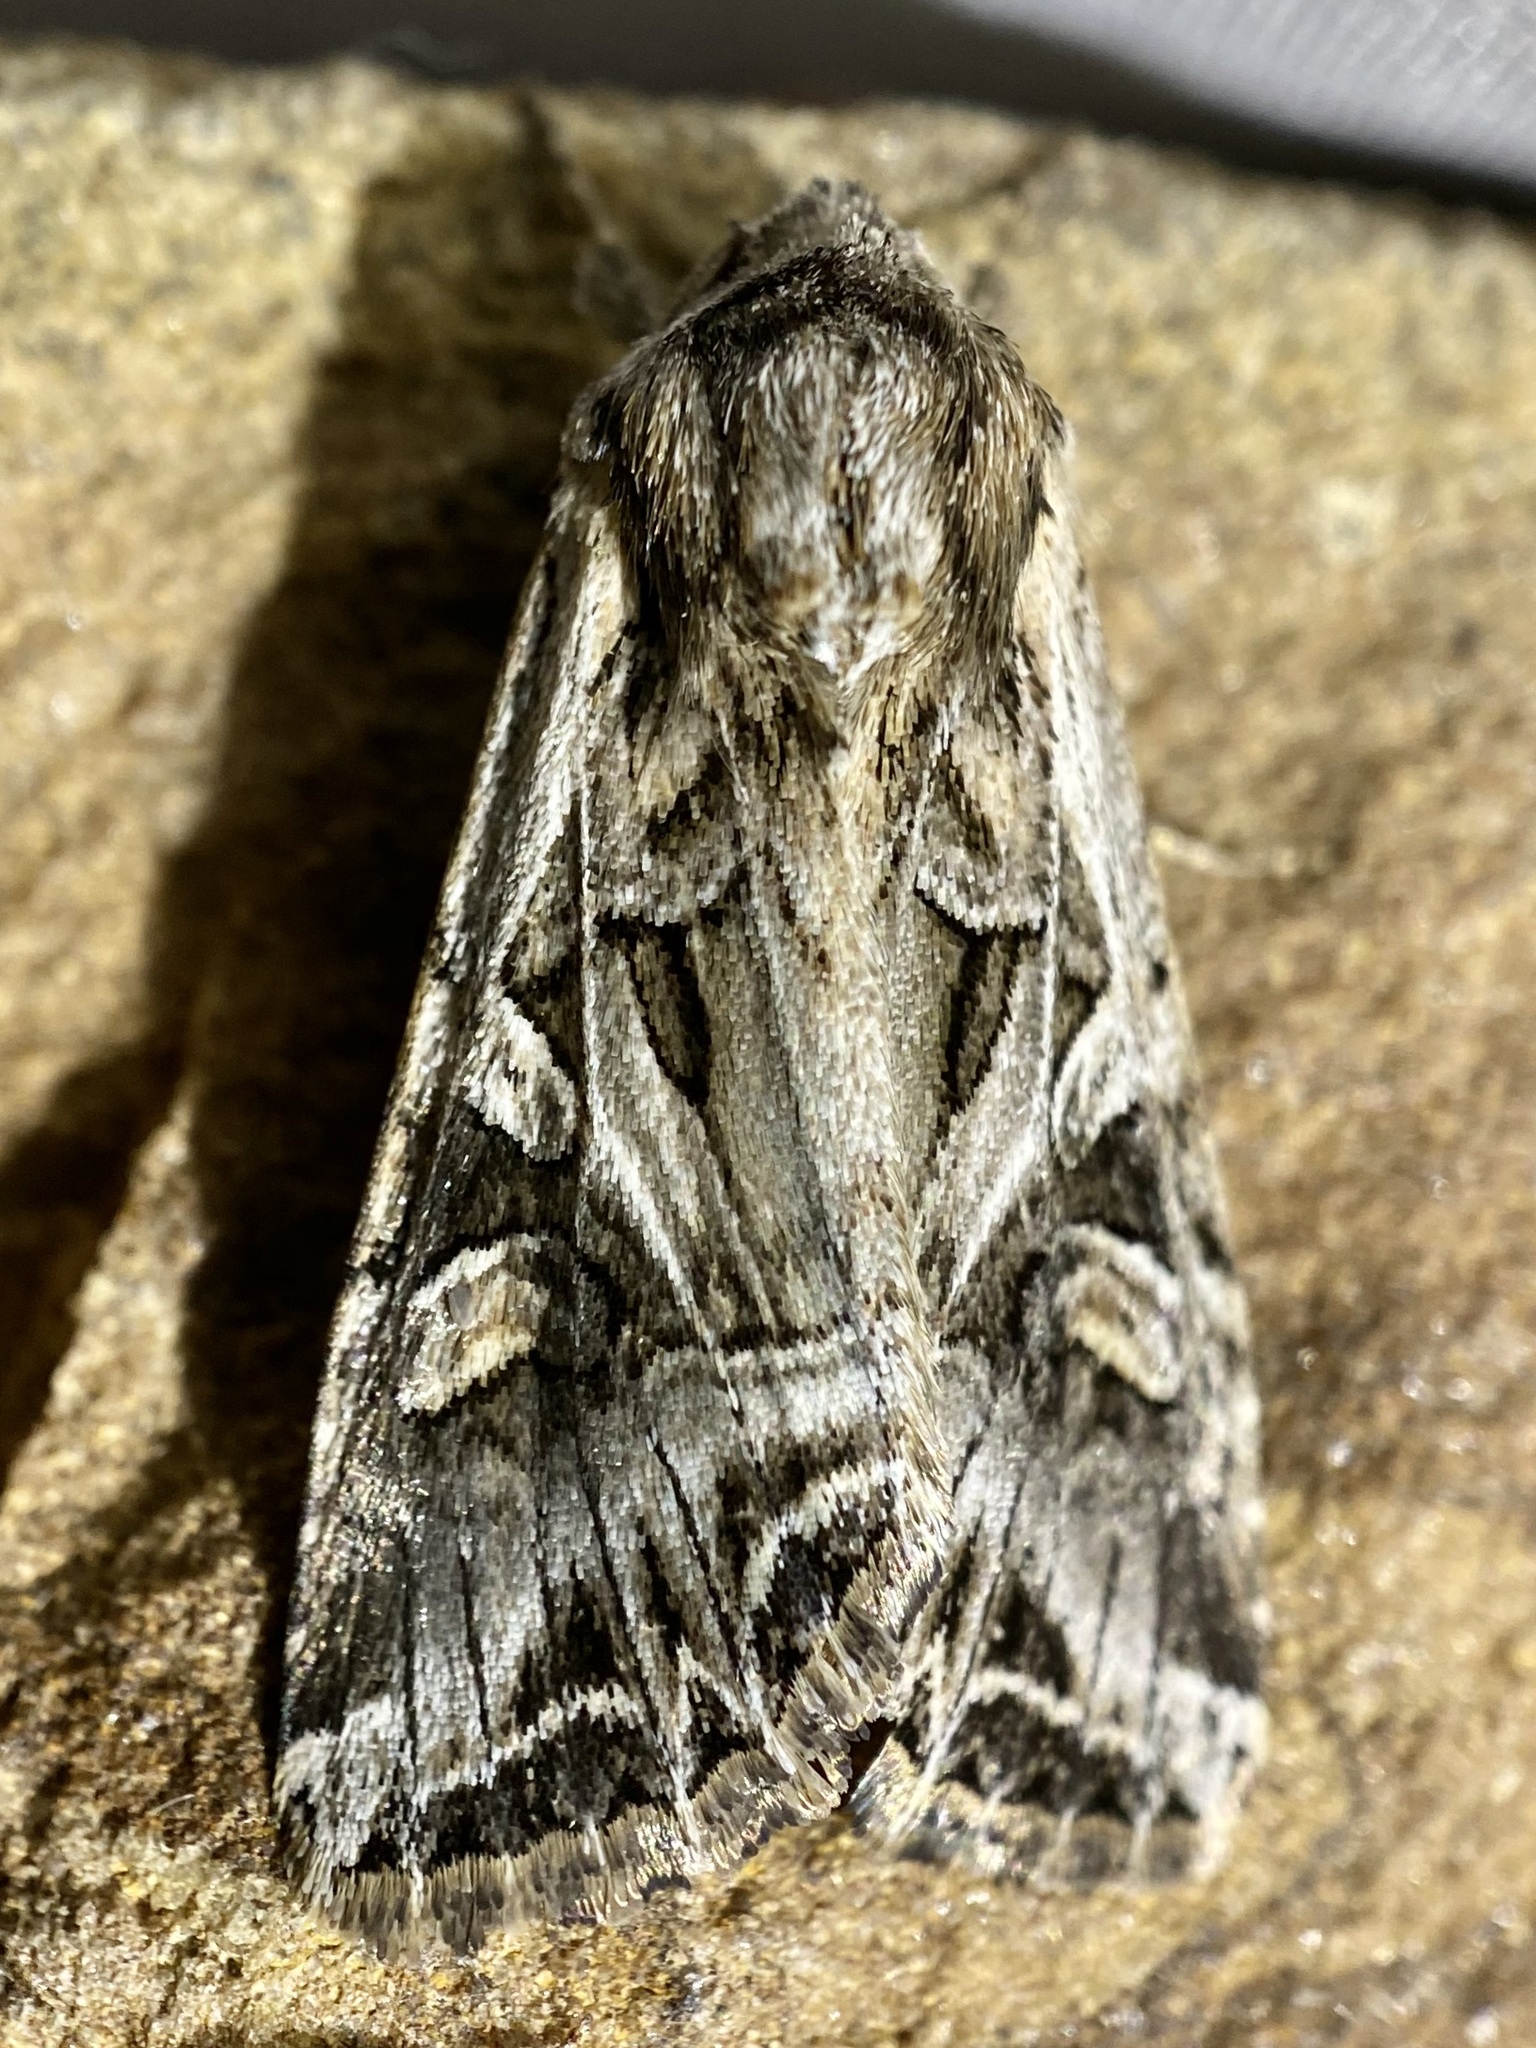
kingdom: Animalia
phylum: Arthropoda
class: Insecta
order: Lepidoptera
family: Noctuidae
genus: Trichordestra
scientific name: Trichordestra prodeniformis
